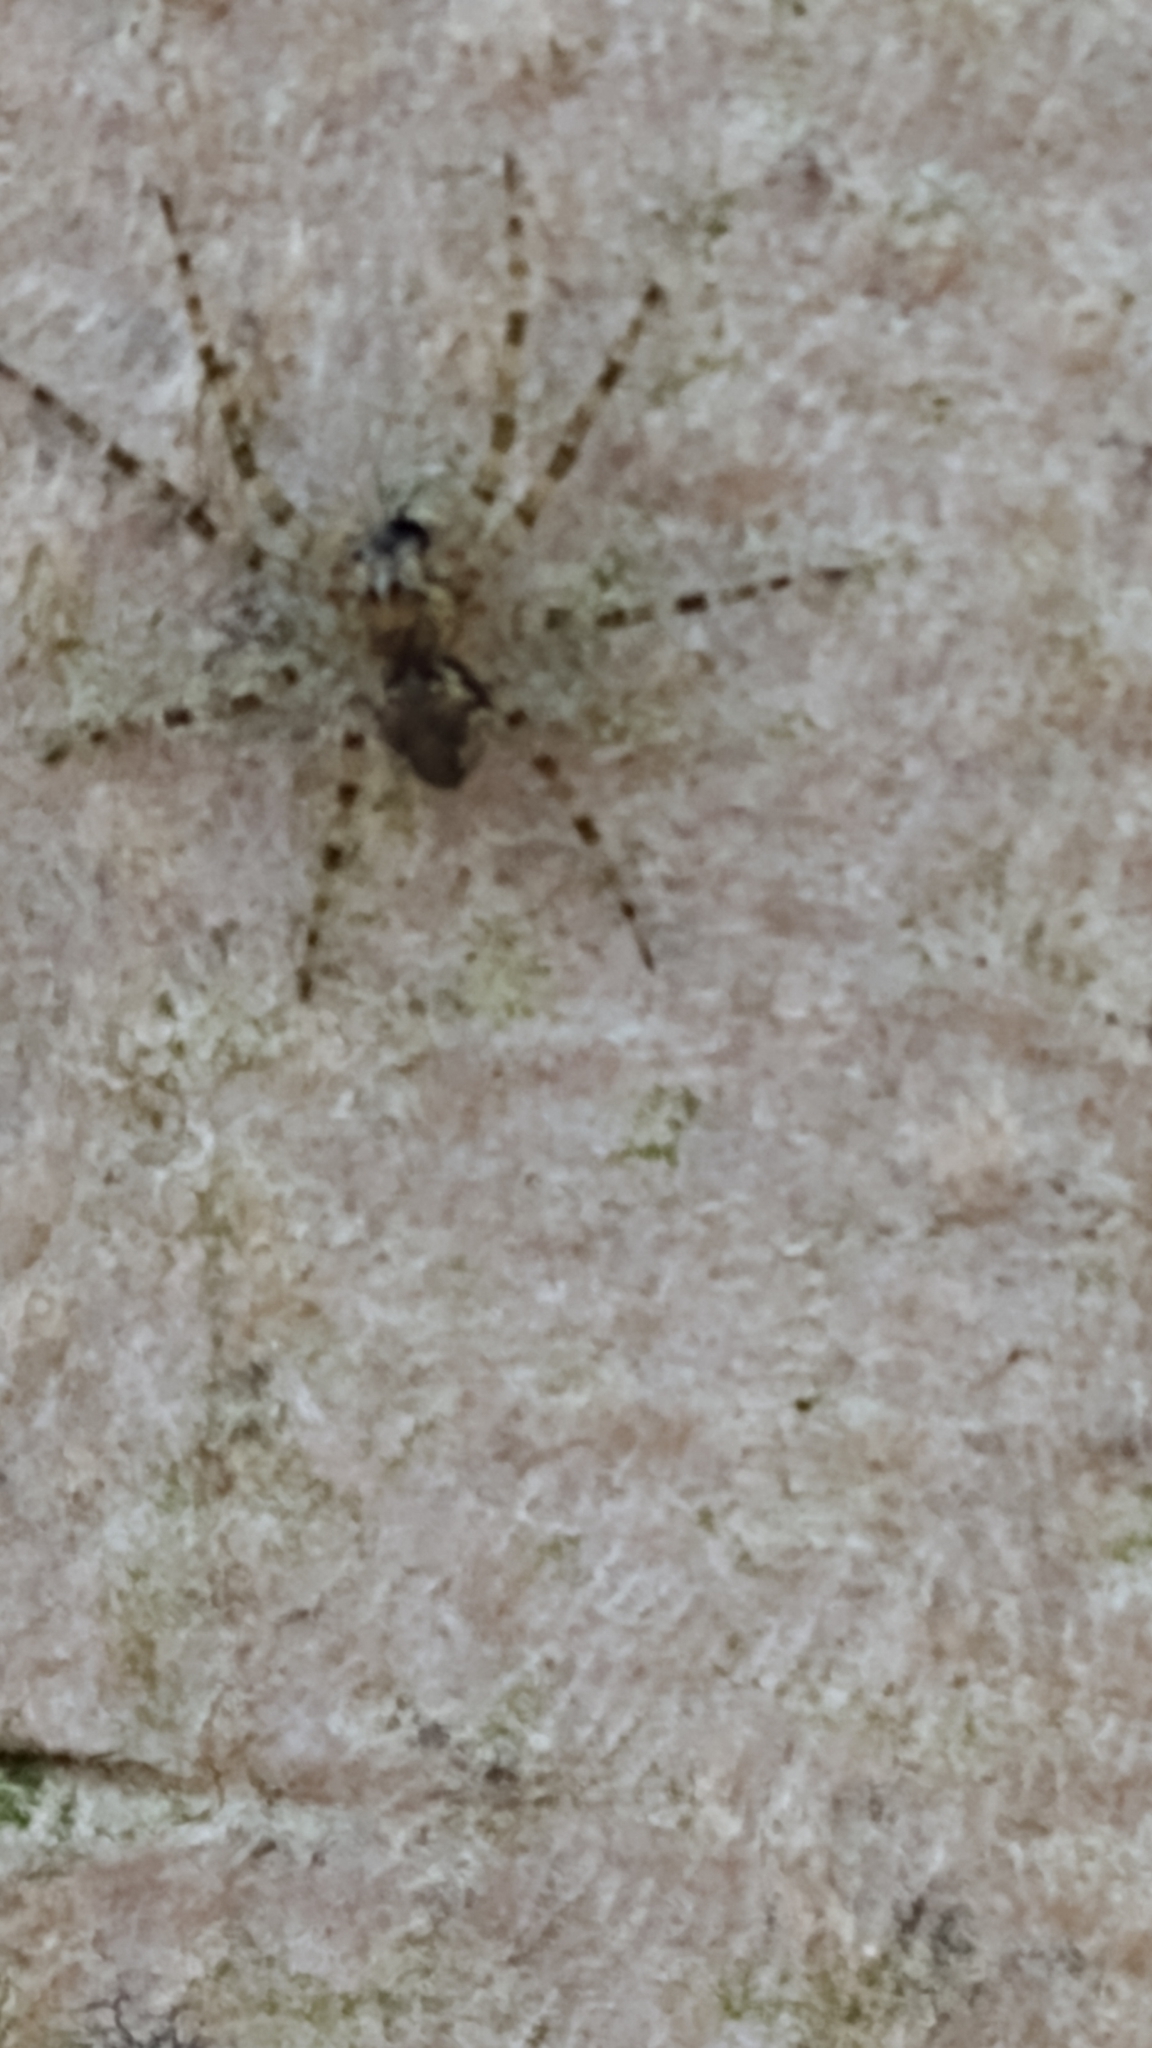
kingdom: Animalia
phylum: Arthropoda
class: Arachnida
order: Araneae
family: Pisauridae
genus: Dolomedes
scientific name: Dolomedes albineus
